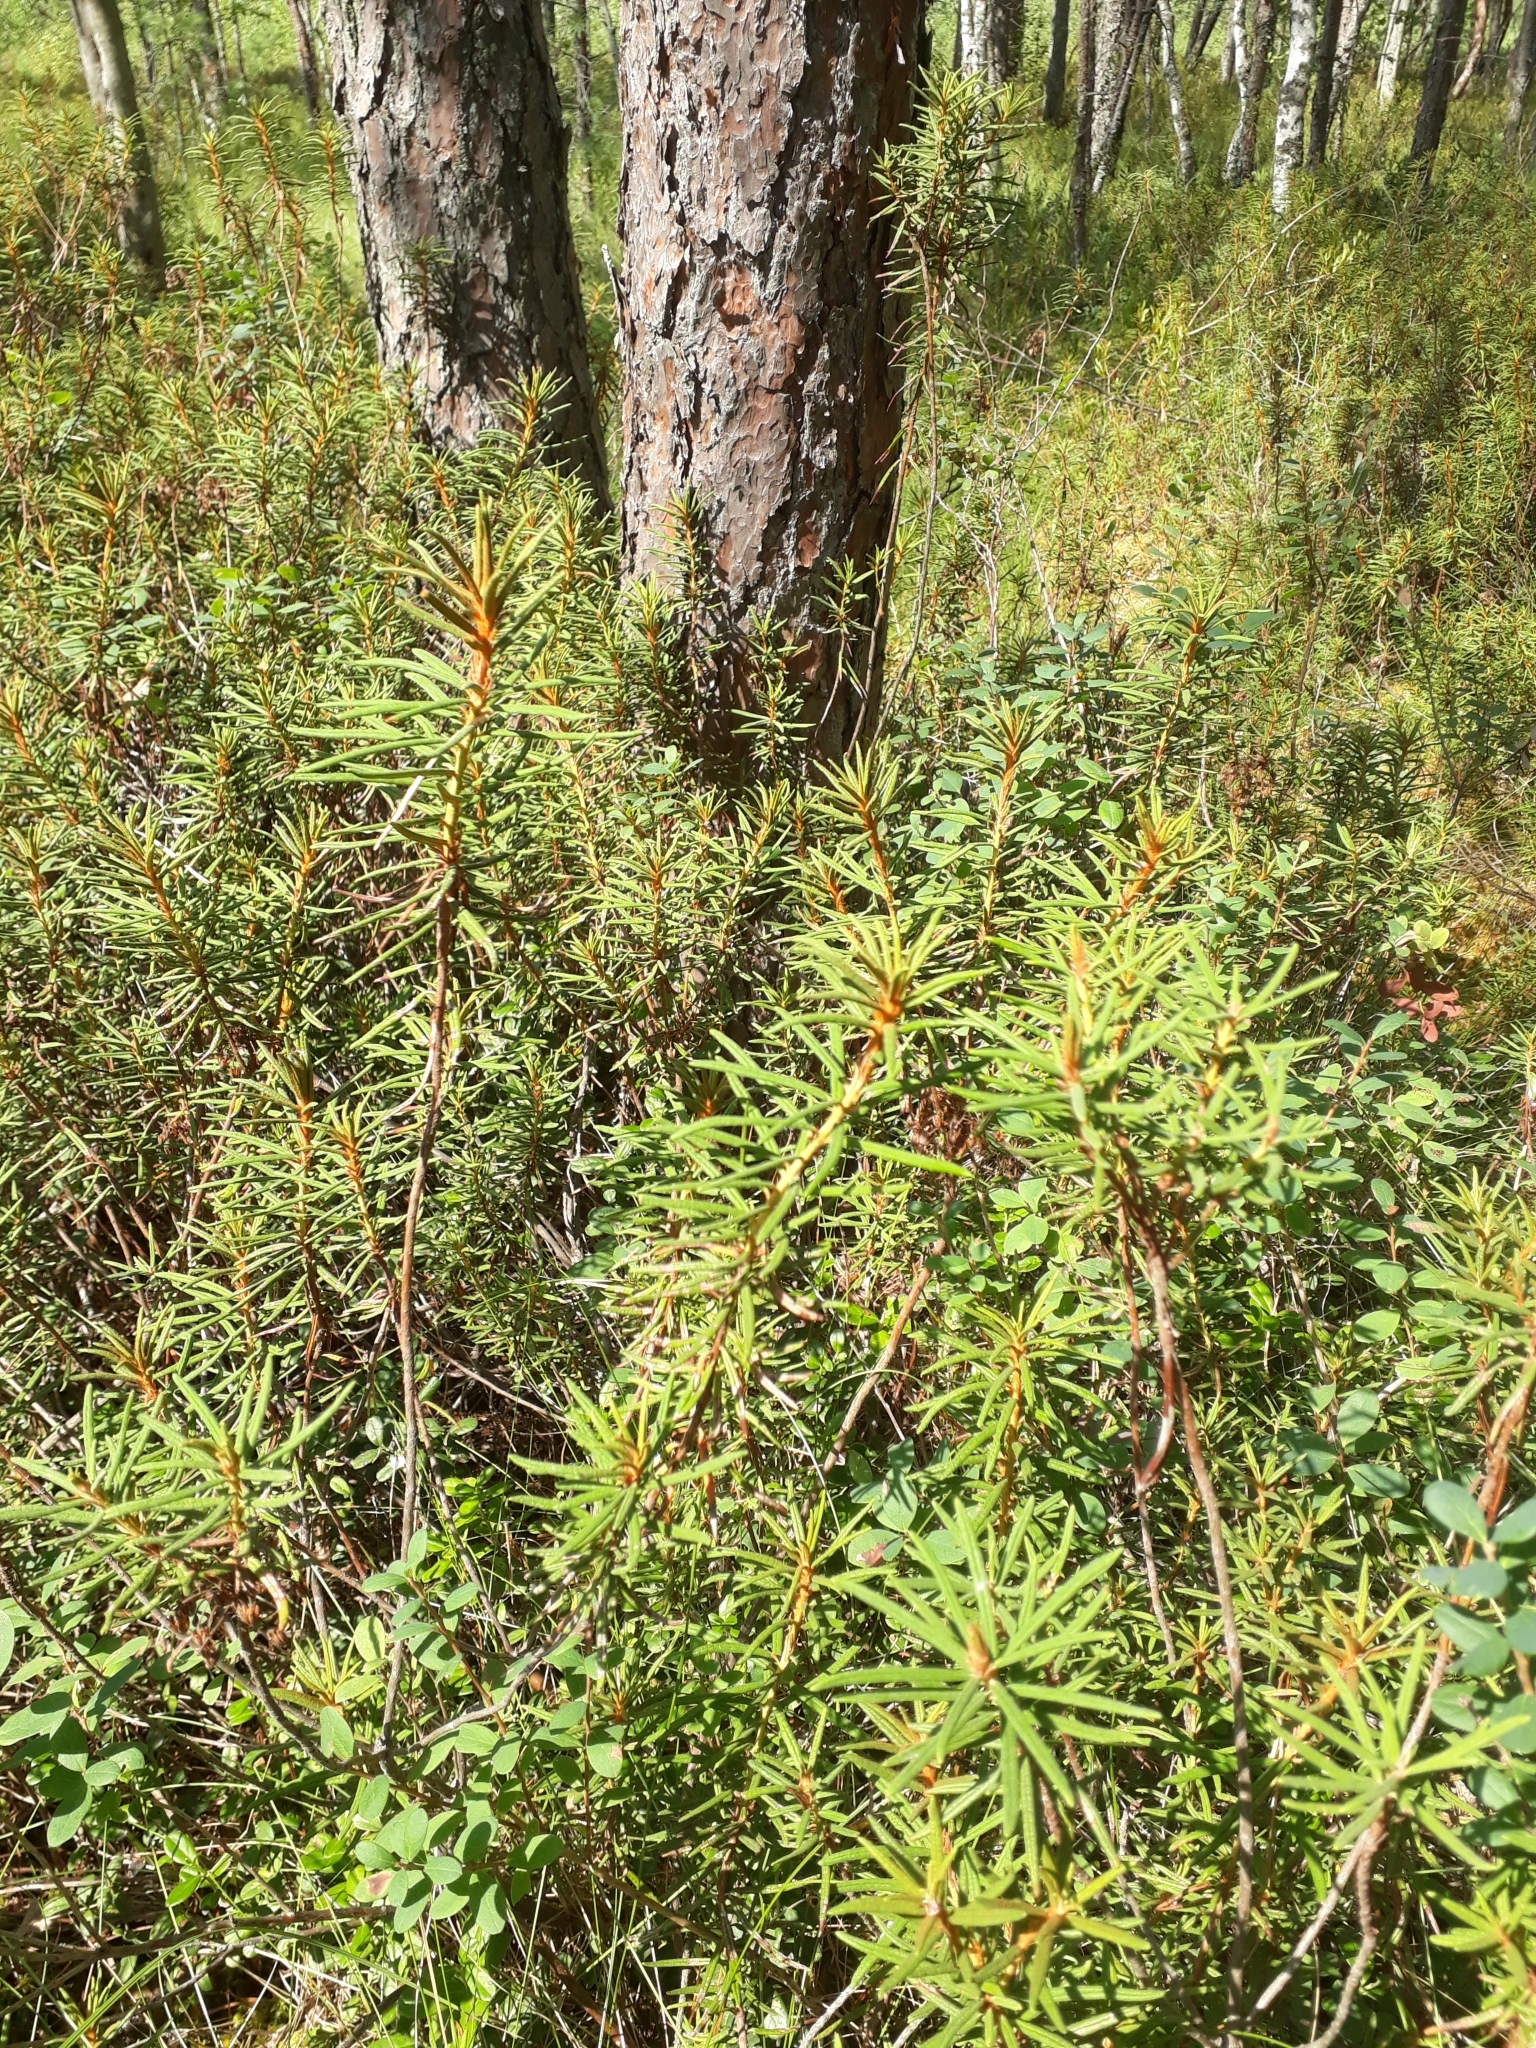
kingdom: Plantae
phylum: Tracheophyta
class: Magnoliopsida
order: Ericales
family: Ericaceae
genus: Rhododendron
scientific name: Rhododendron tomentosum
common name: Marsh labrador tea
